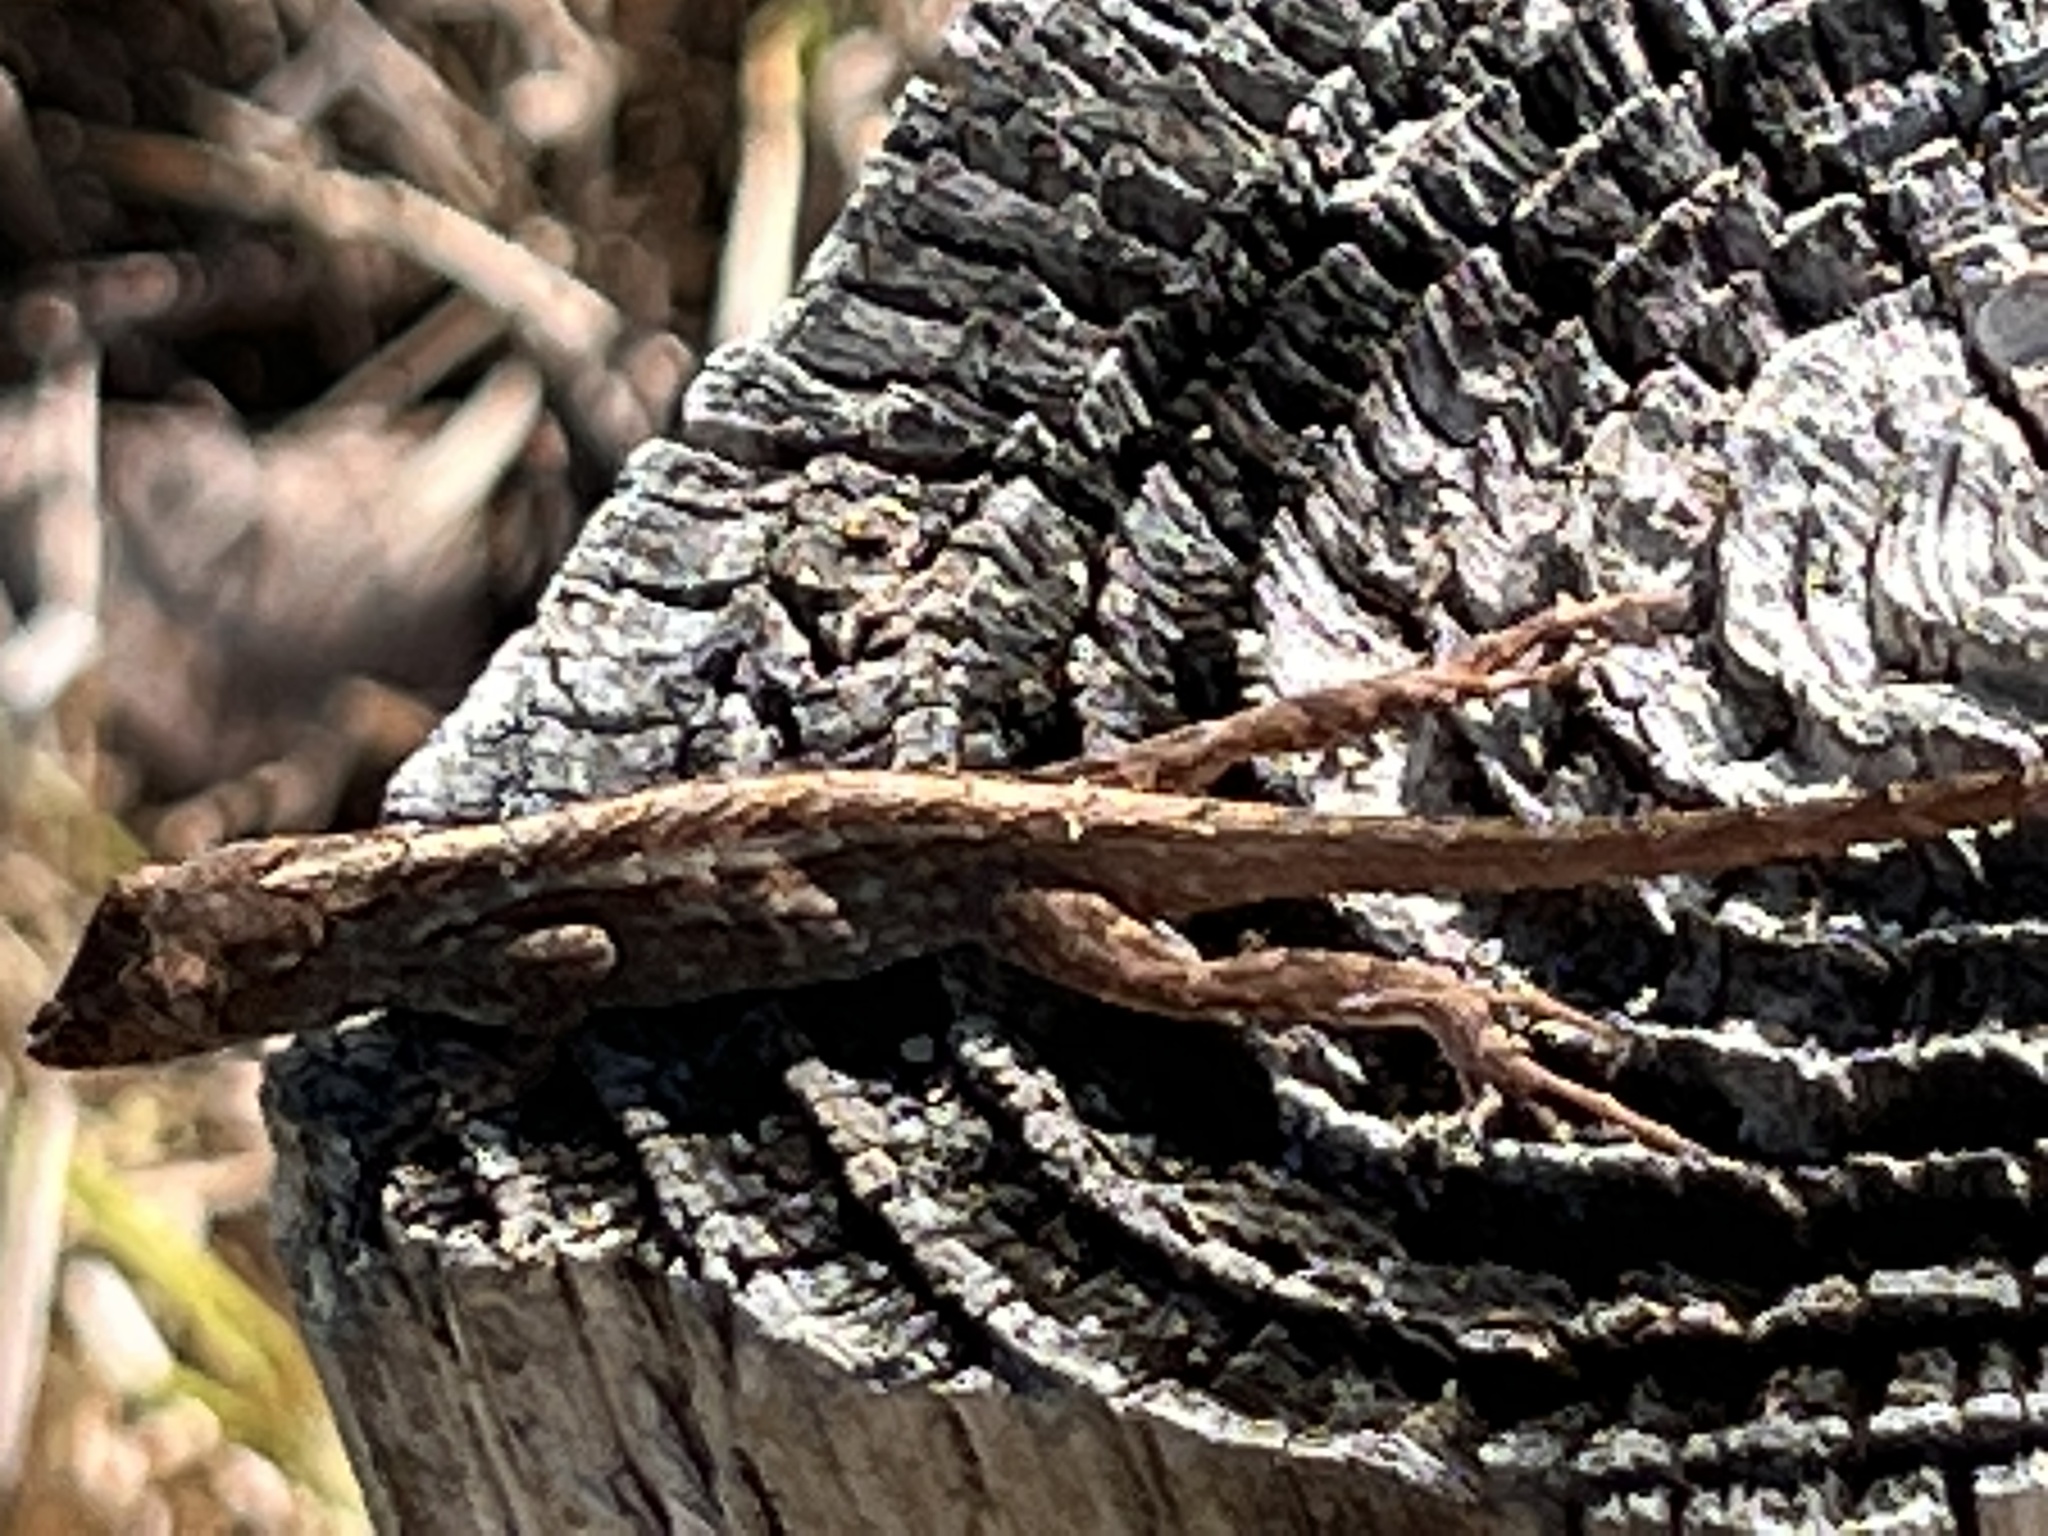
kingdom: Animalia
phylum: Chordata
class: Squamata
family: Dactyloidae
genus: Anolis
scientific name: Anolis sagrei
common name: Brown anole
